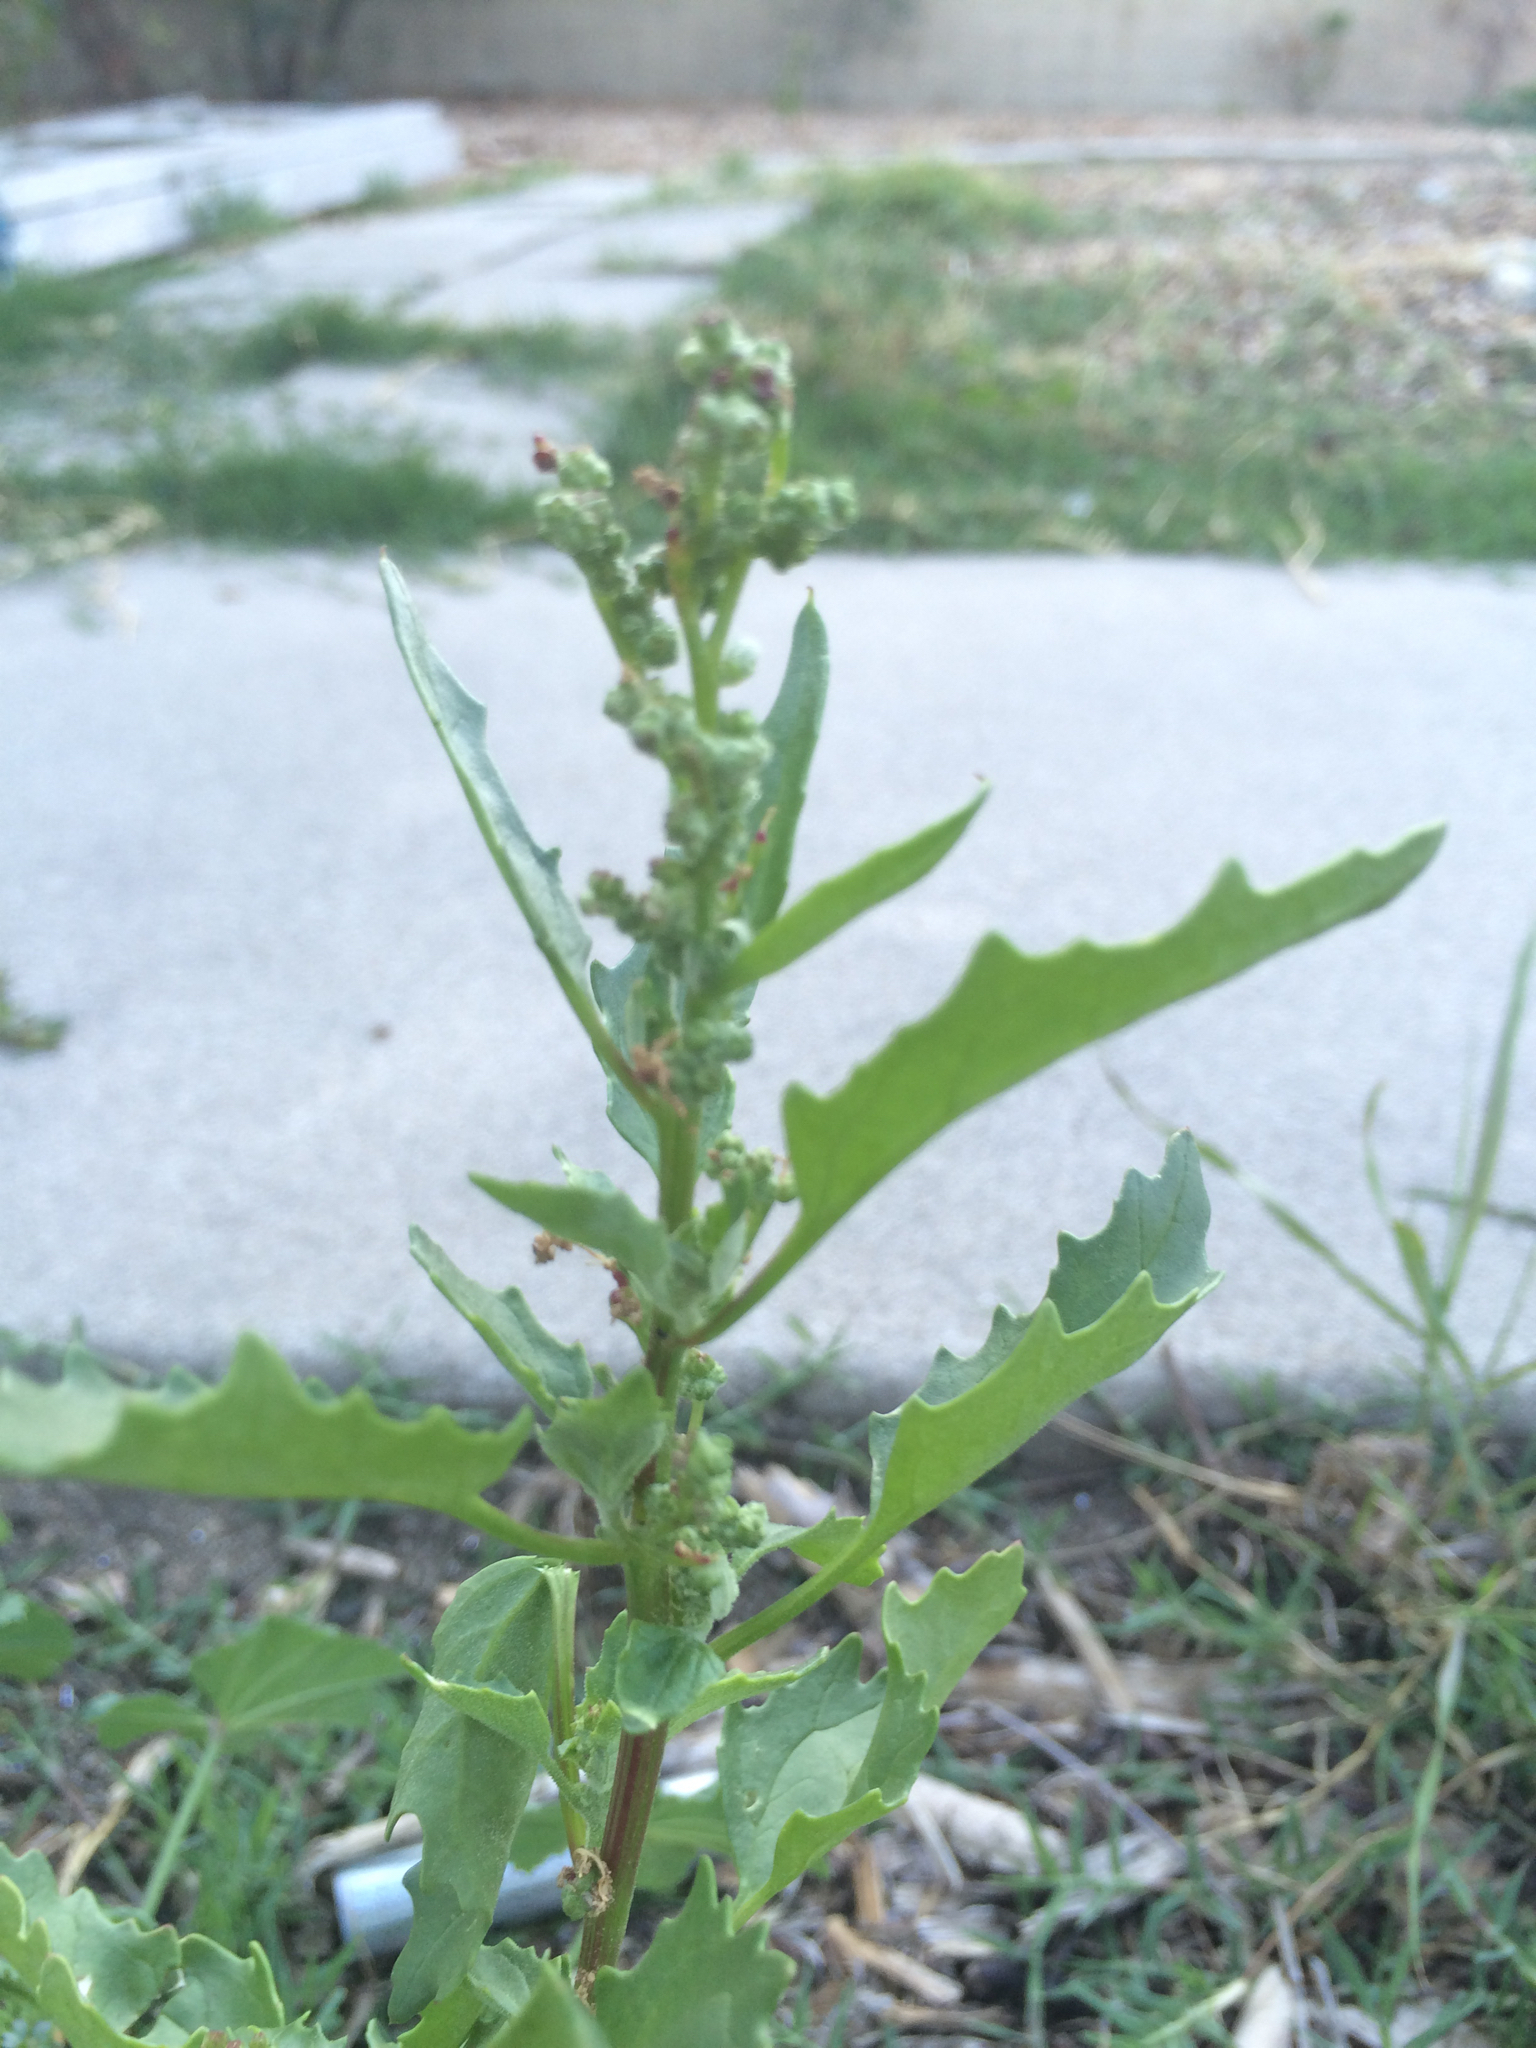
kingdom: Plantae
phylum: Tracheophyta
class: Magnoliopsida
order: Caryophyllales
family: Amaranthaceae
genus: Chenopodiastrum
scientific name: Chenopodiastrum murale
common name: Sowbane
